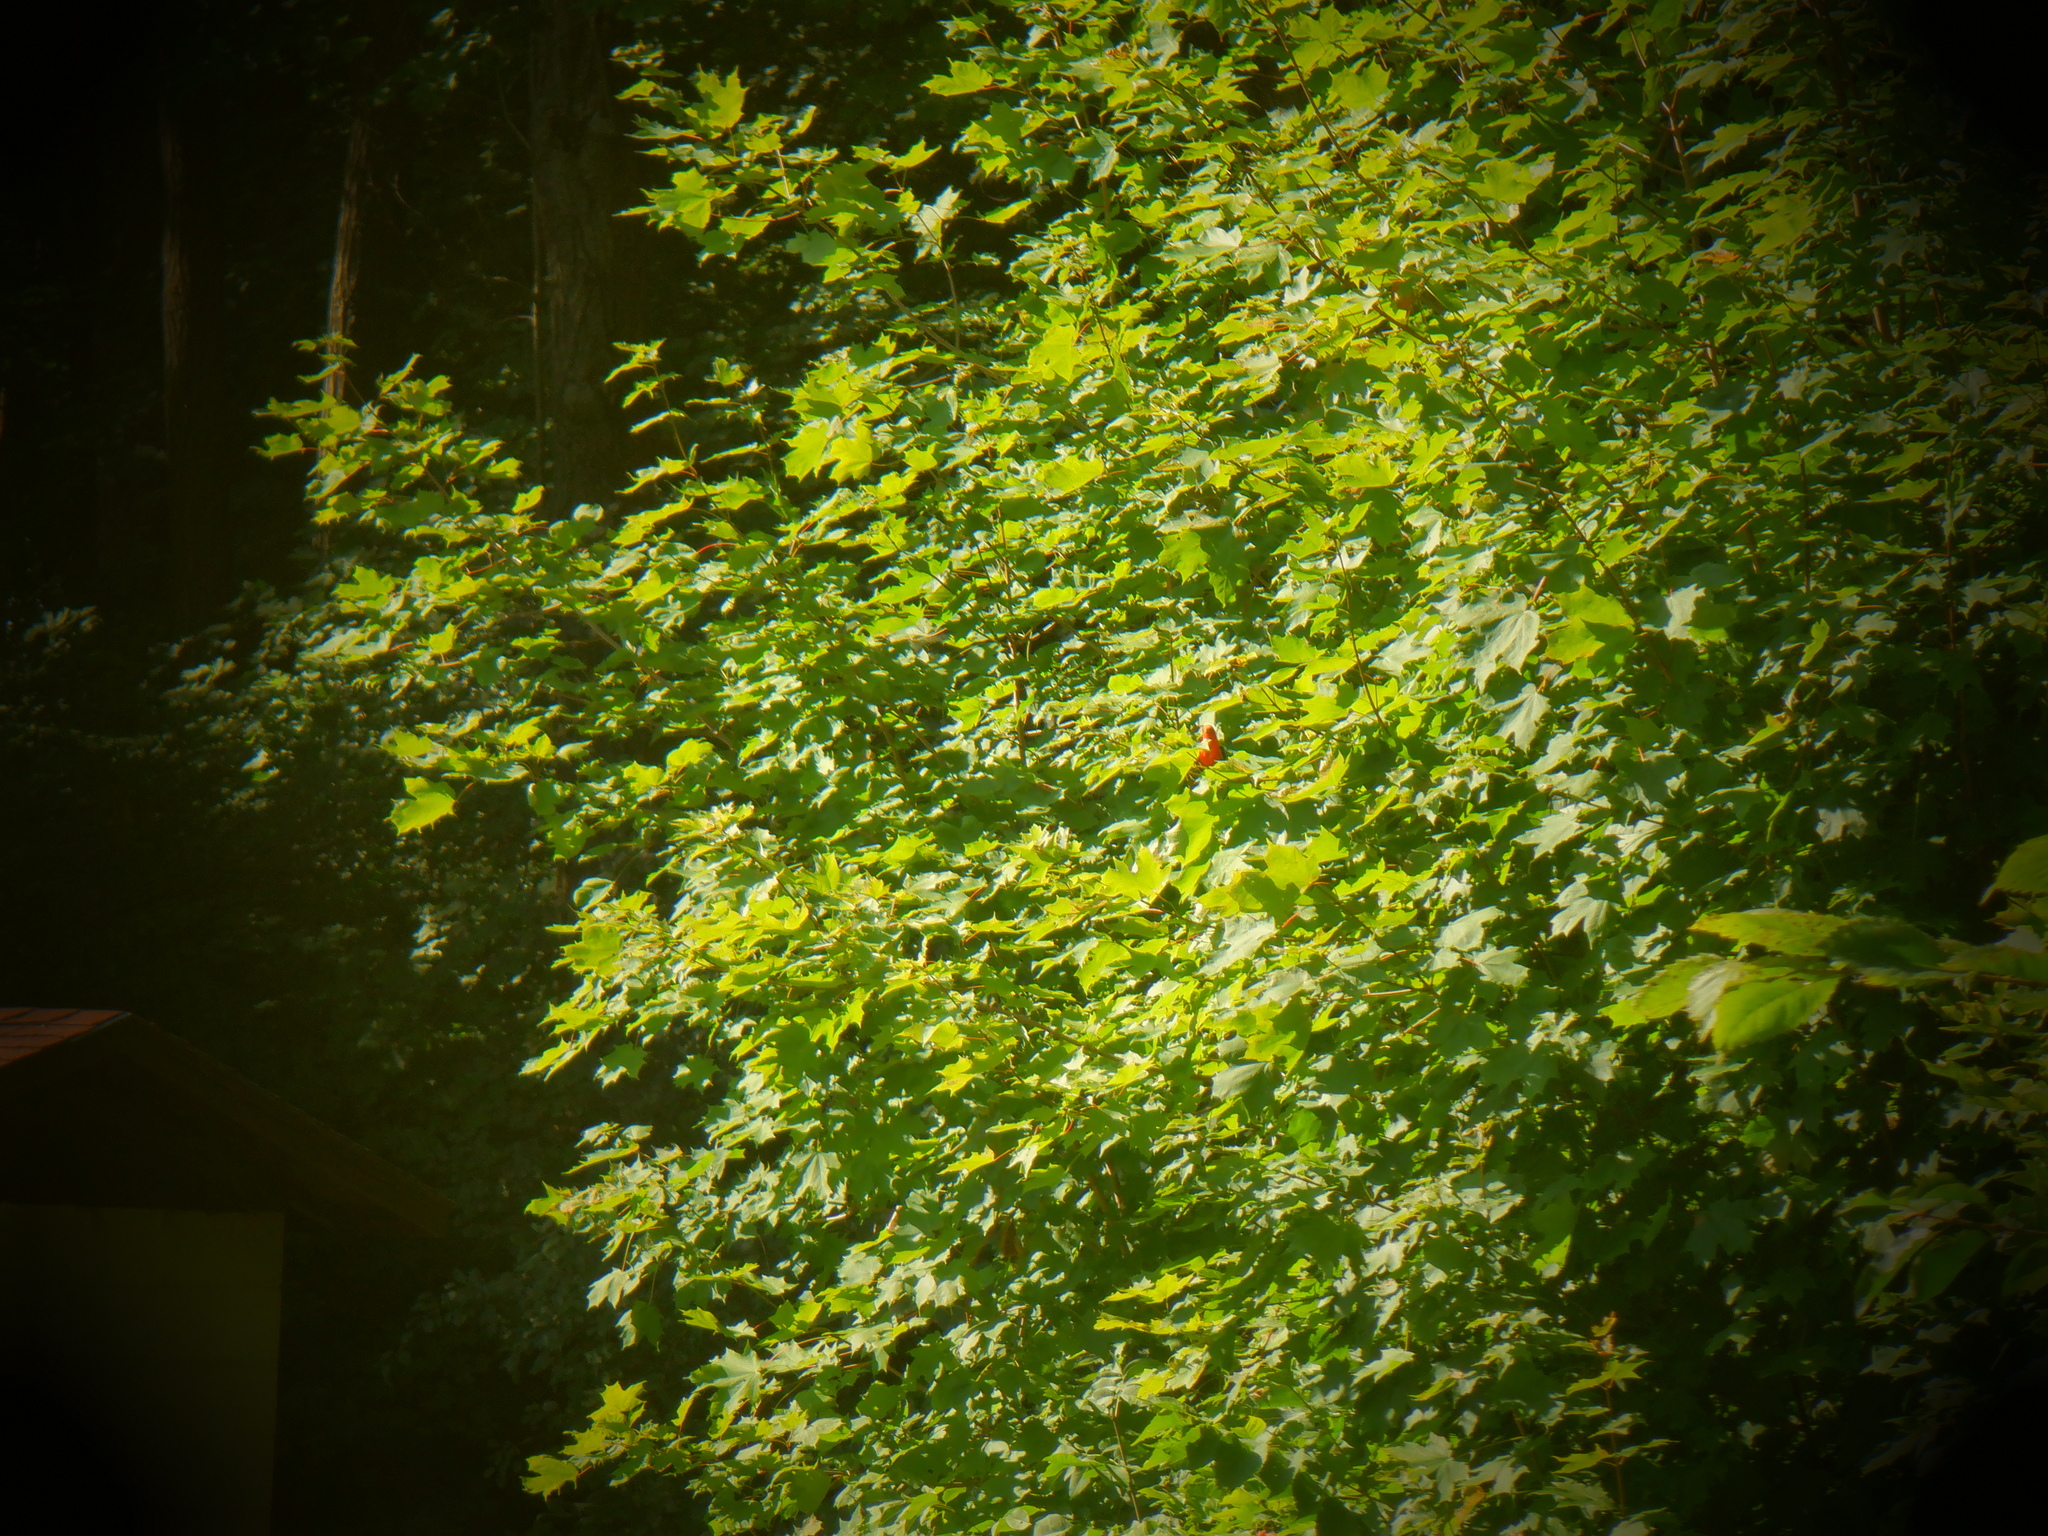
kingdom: Animalia
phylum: Chordata
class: Aves
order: Passeriformes
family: Cardinalidae
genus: Piranga
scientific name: Piranga olivacea
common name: Scarlet tanager
